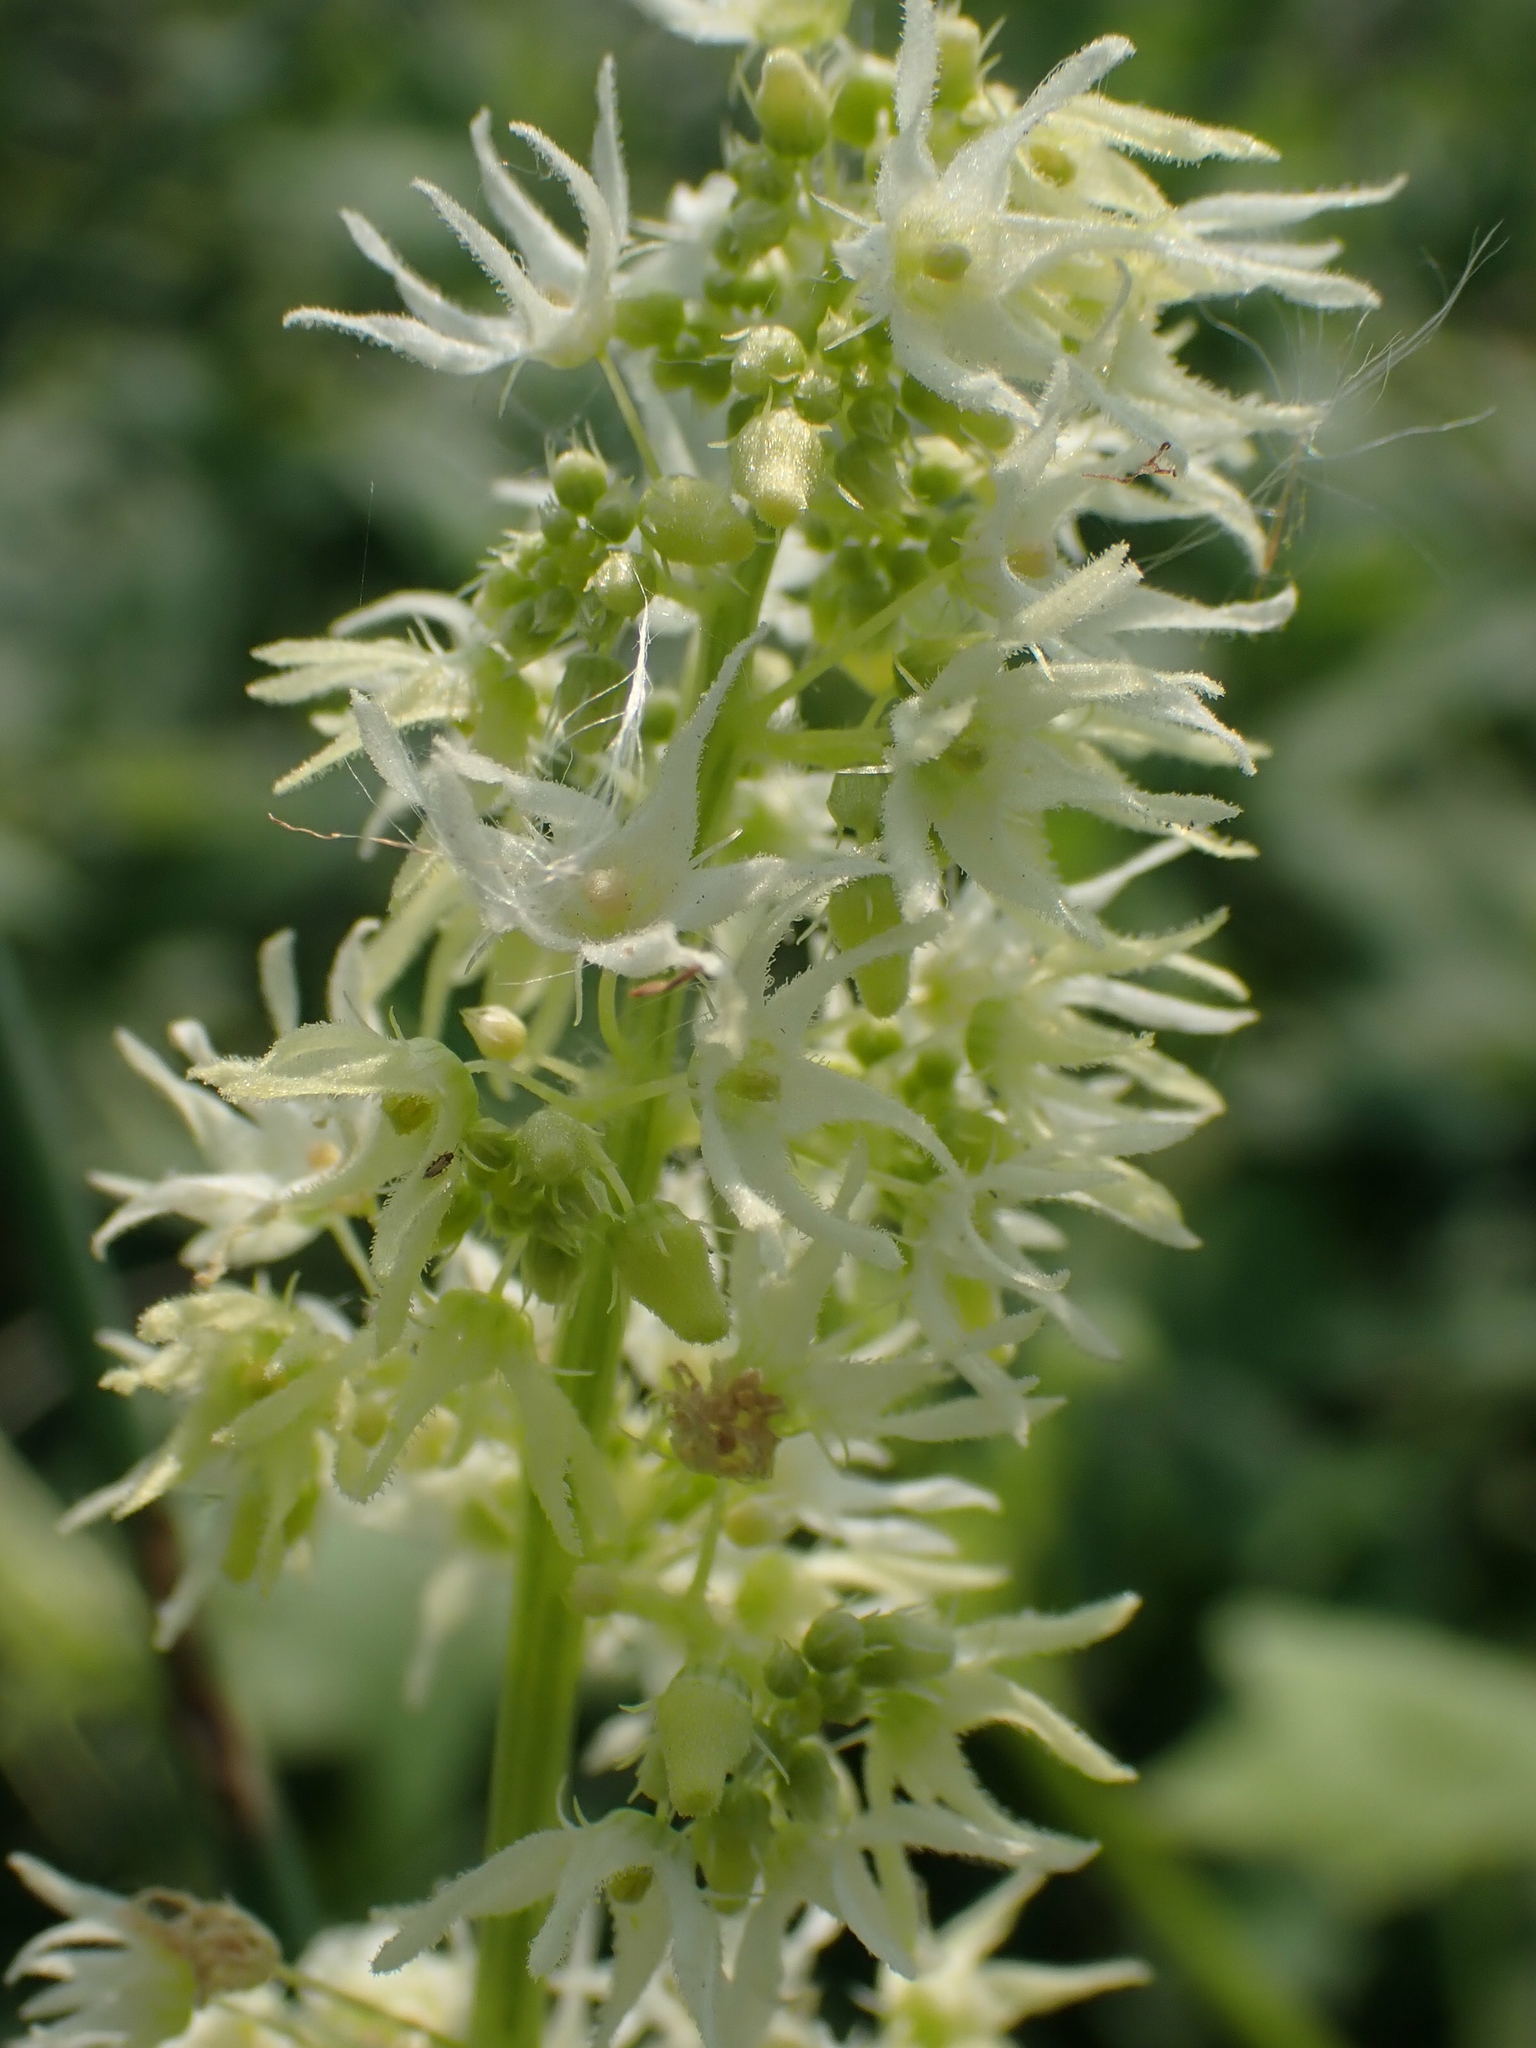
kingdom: Plantae
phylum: Tracheophyta
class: Magnoliopsida
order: Cucurbitales
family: Cucurbitaceae
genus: Echinocystis
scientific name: Echinocystis lobata
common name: Wild cucumber
